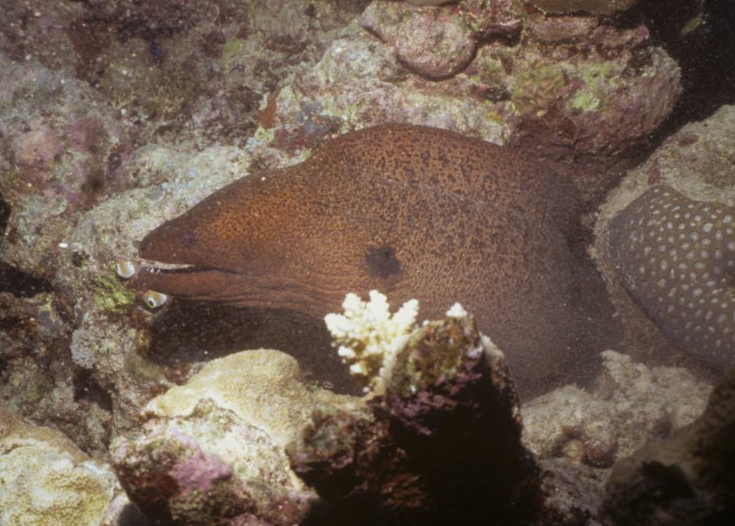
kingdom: Animalia
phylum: Chordata
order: Anguilliformes
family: Muraenidae
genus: Gymnothorax
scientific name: Gymnothorax javanicus
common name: Giant moray
